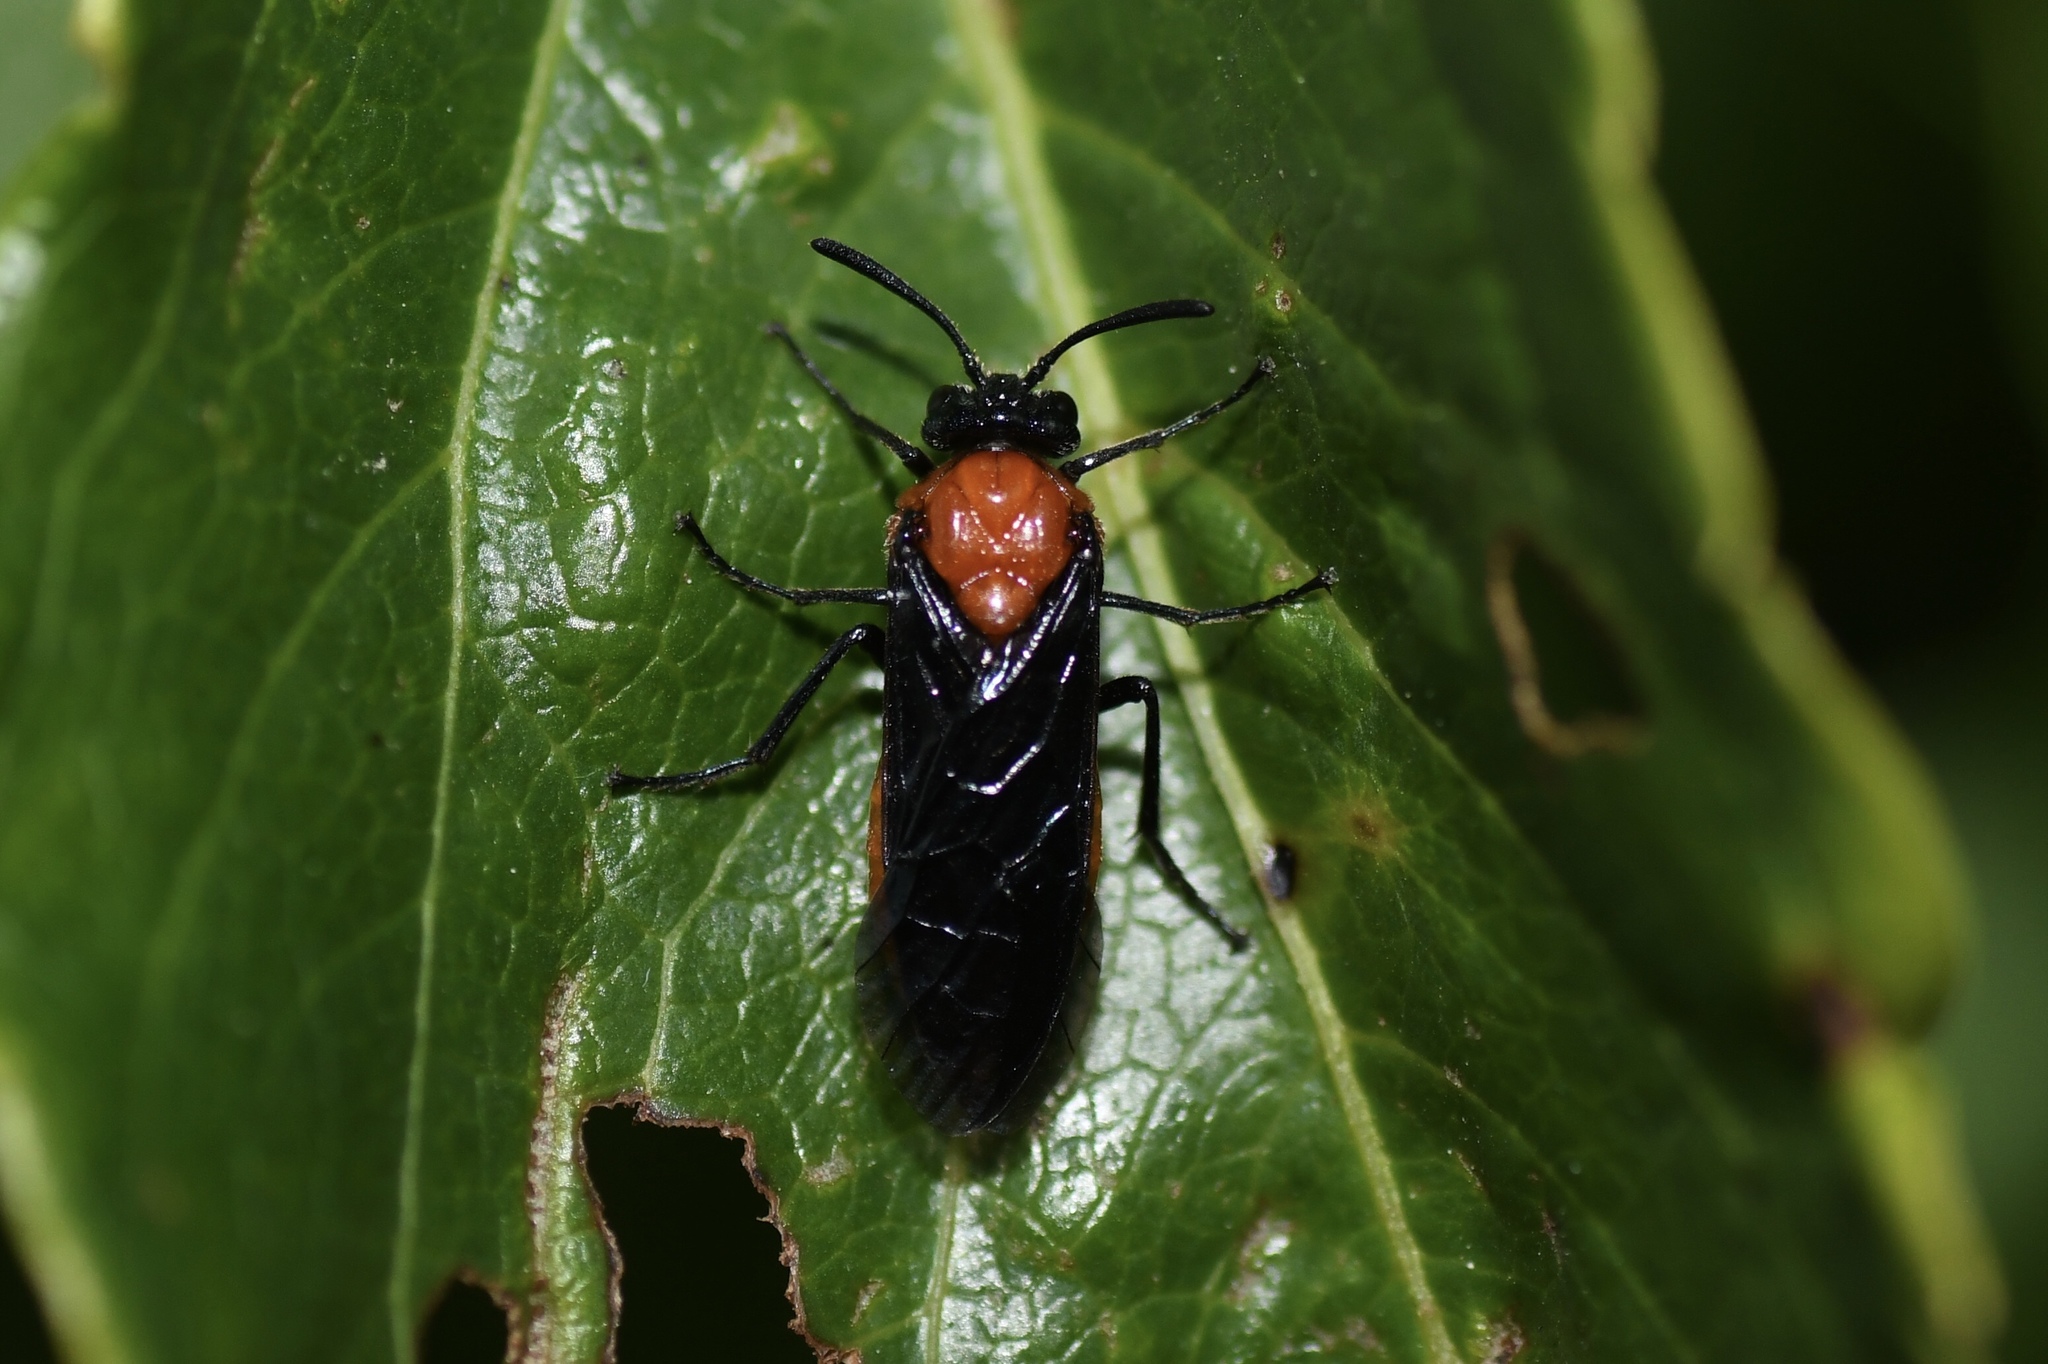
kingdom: Animalia
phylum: Arthropoda
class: Insecta
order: Hymenoptera
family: Argidae
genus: Arge
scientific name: Arge pectoralis
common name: Birch sawfly
